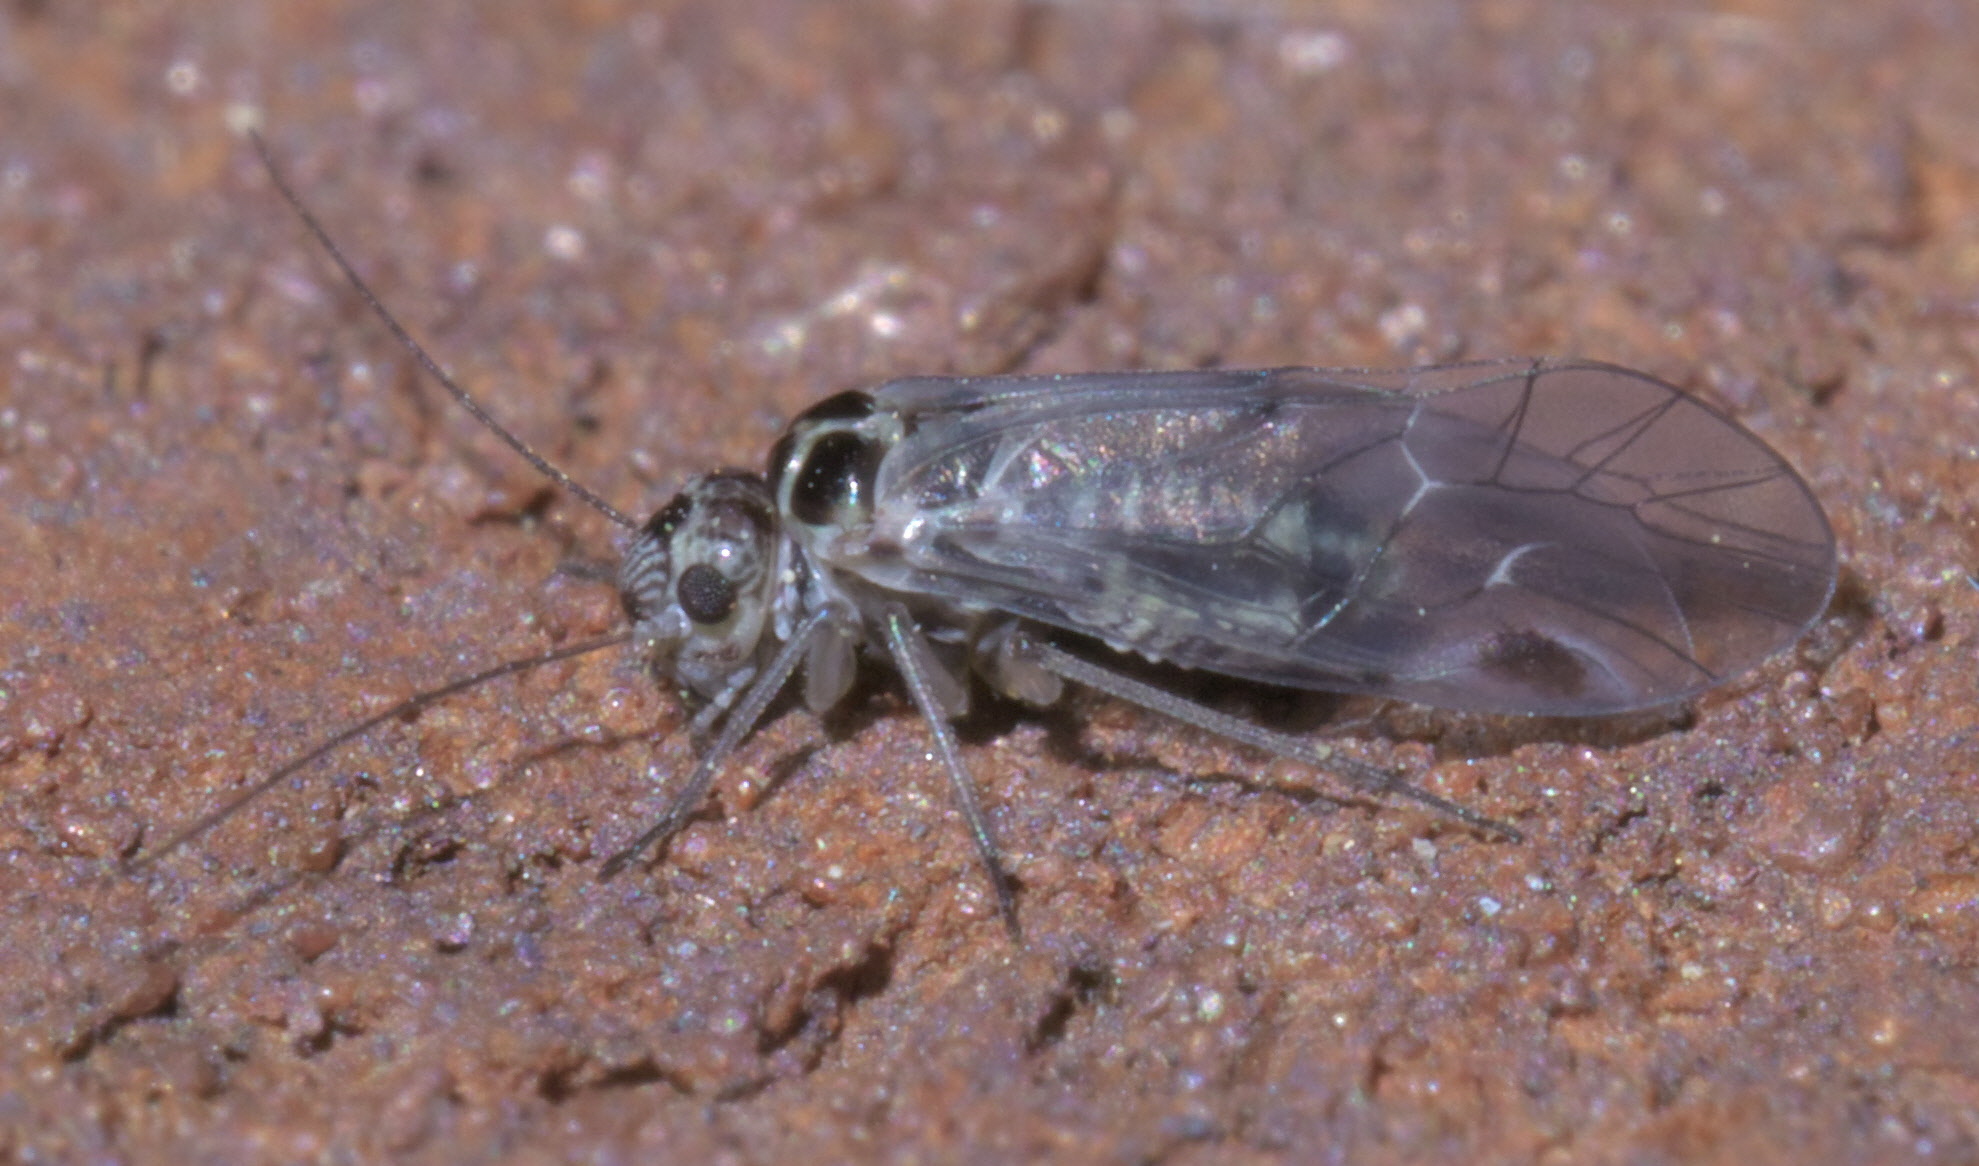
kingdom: Animalia
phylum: Arthropoda
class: Insecta
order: Psocodea
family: Psocidae
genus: Blaste
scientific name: Blaste quieta
